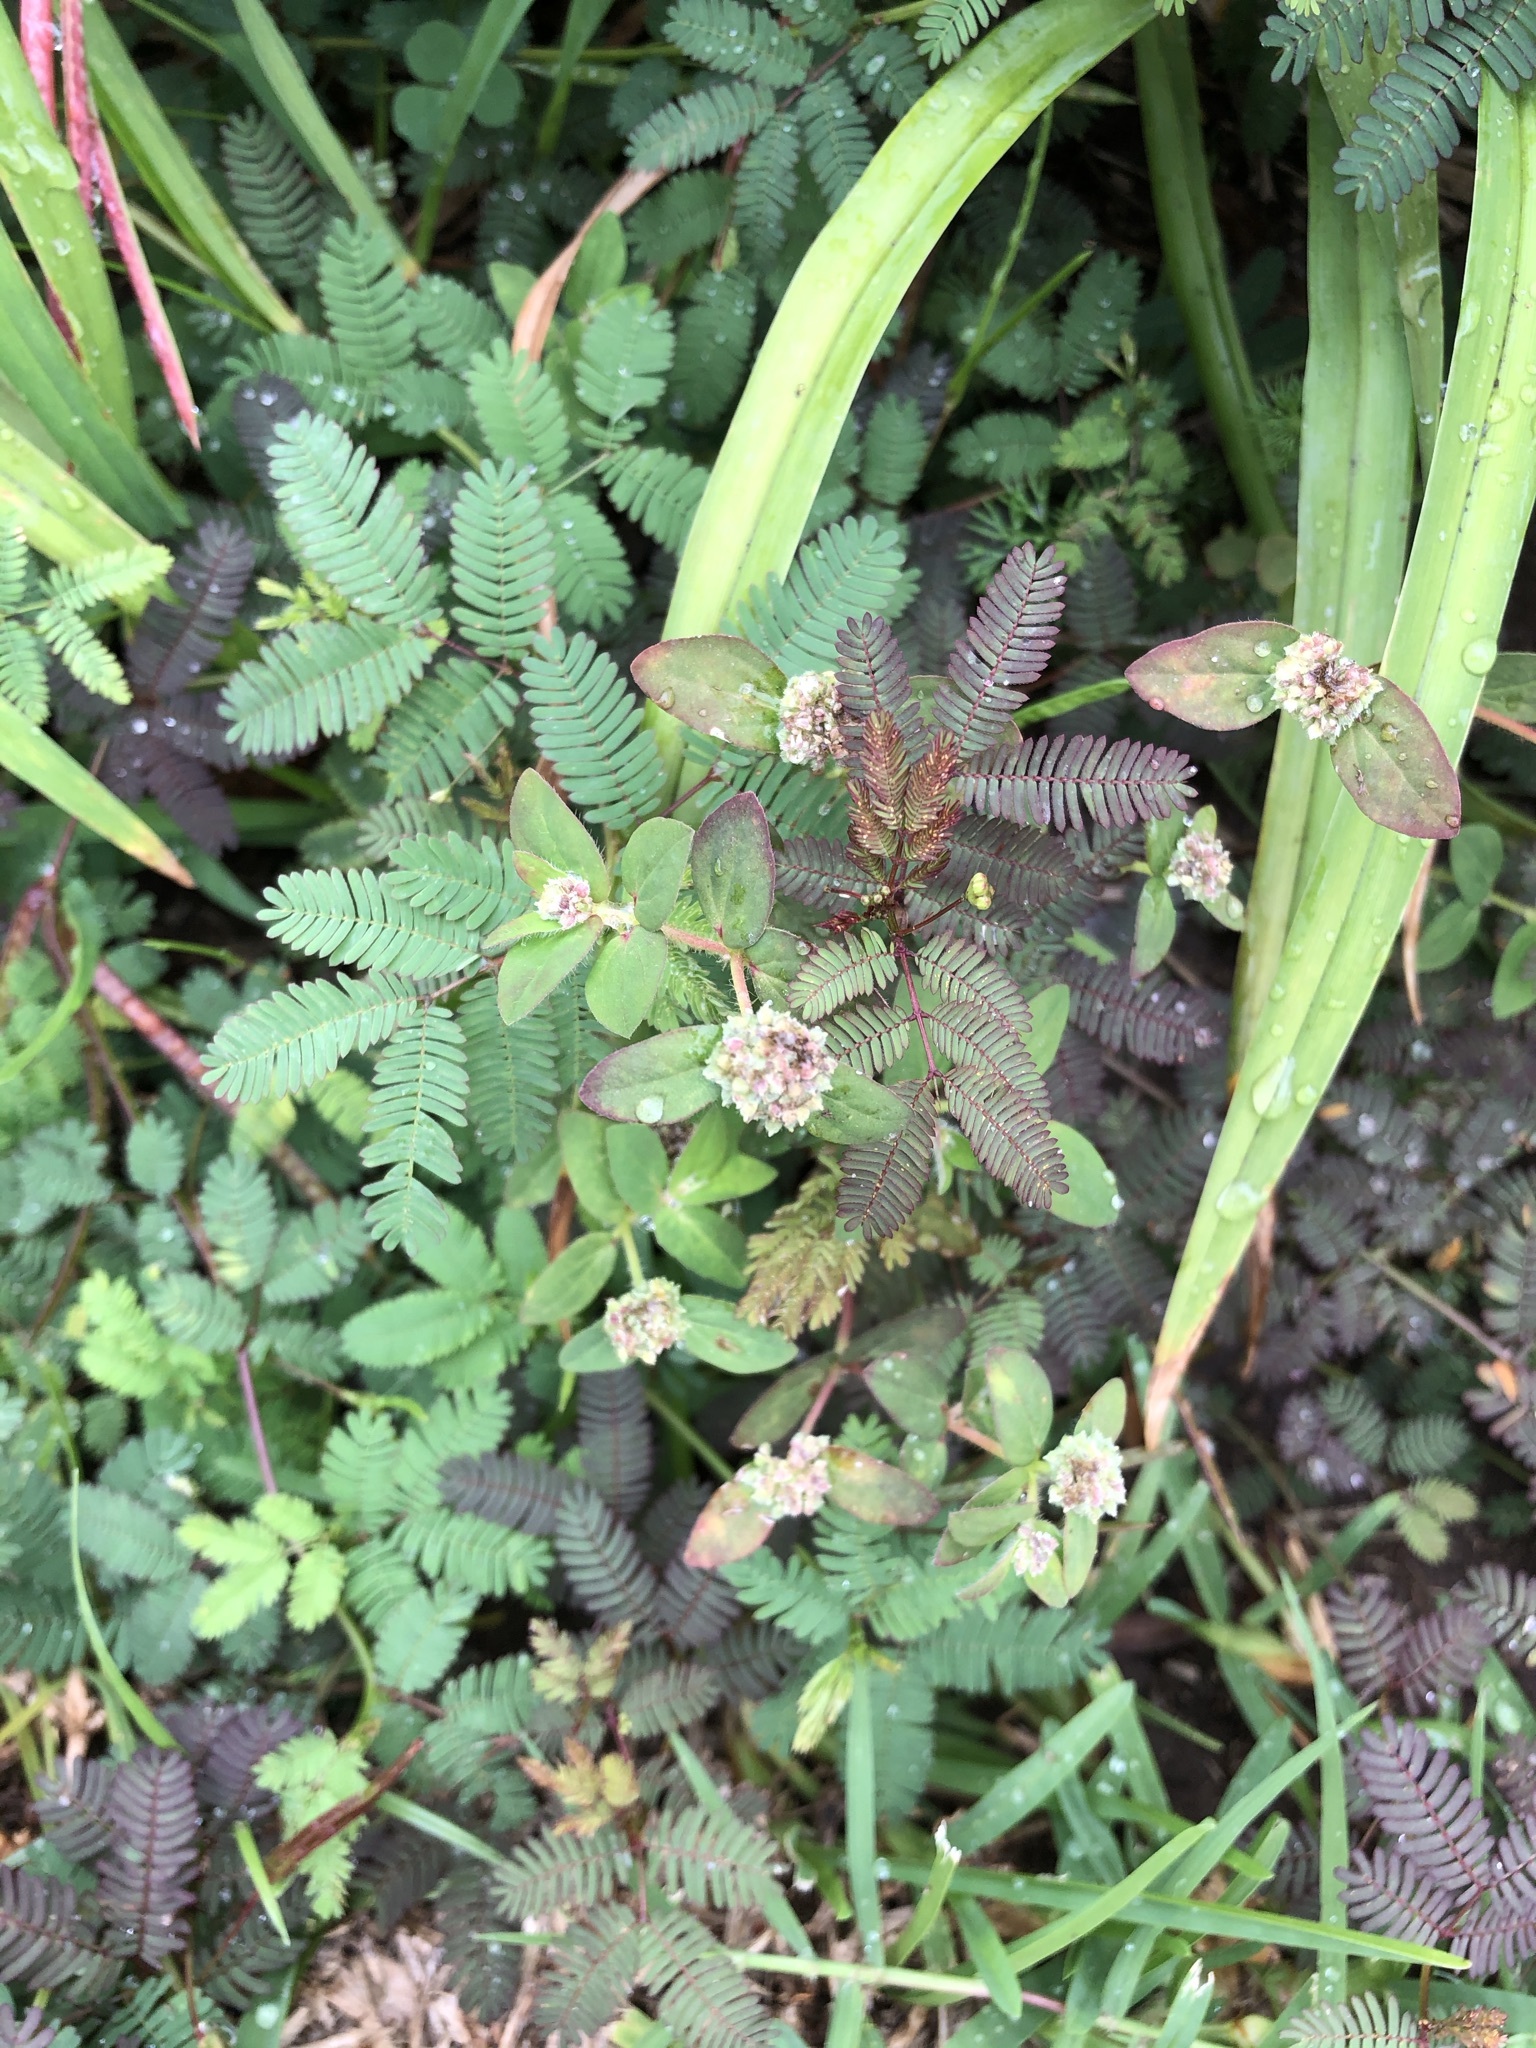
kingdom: Plantae
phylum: Tracheophyta
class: Magnoliopsida
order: Malpighiales
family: Euphorbiaceae
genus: Euphorbia
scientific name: Euphorbia ophthalmica
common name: Florida hammock sandmat
